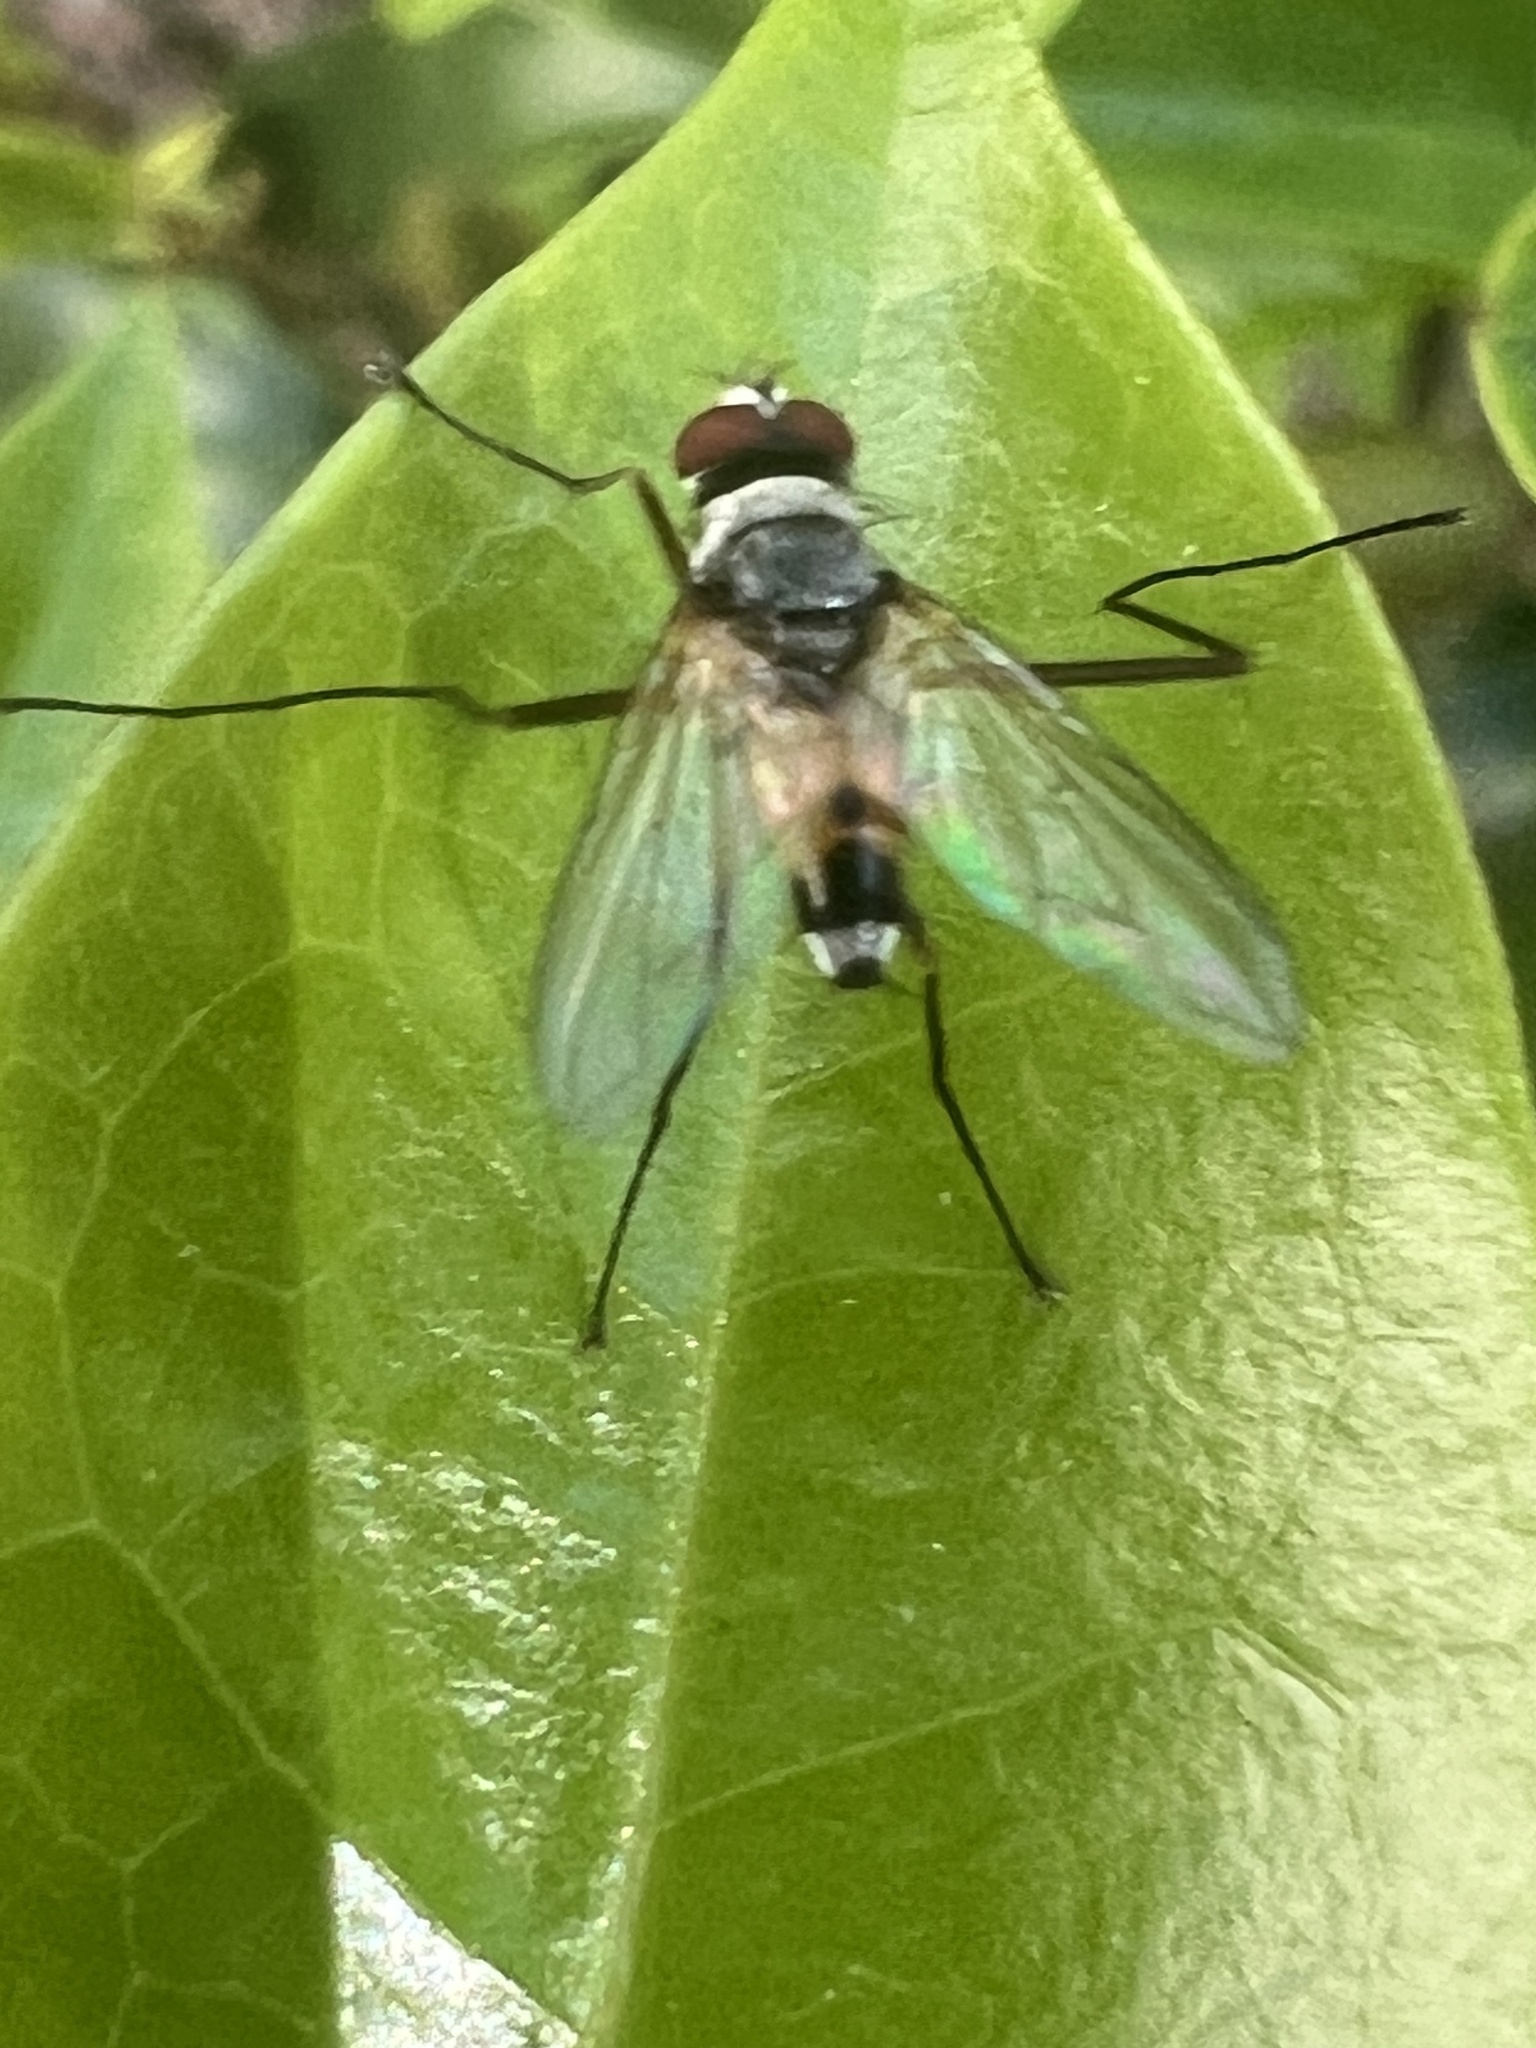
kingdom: Animalia
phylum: Arthropoda
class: Insecta
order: Diptera
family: Tachinidae
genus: Cholomyia
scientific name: Cholomyia inaequipes
